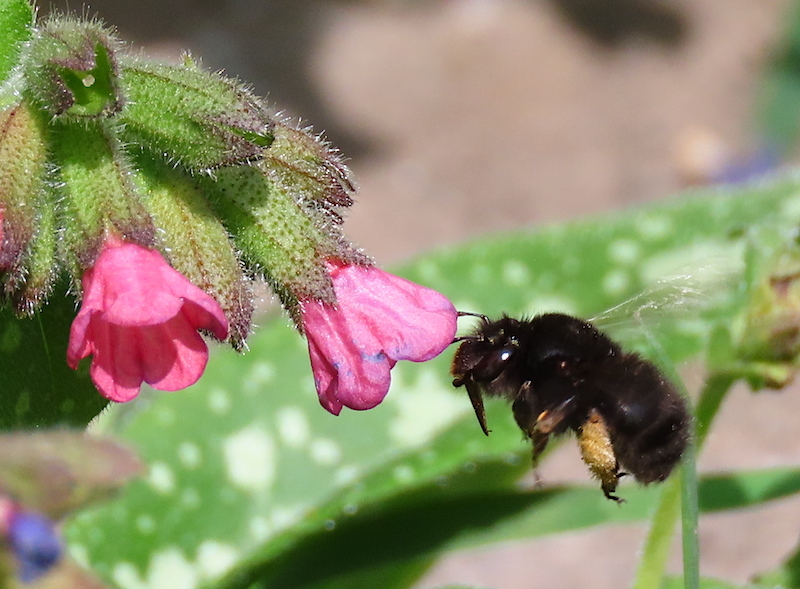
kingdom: Animalia
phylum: Arthropoda
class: Insecta
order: Hymenoptera
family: Apidae
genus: Anthophora
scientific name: Anthophora plumipes
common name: Hairy-footed flower bee
